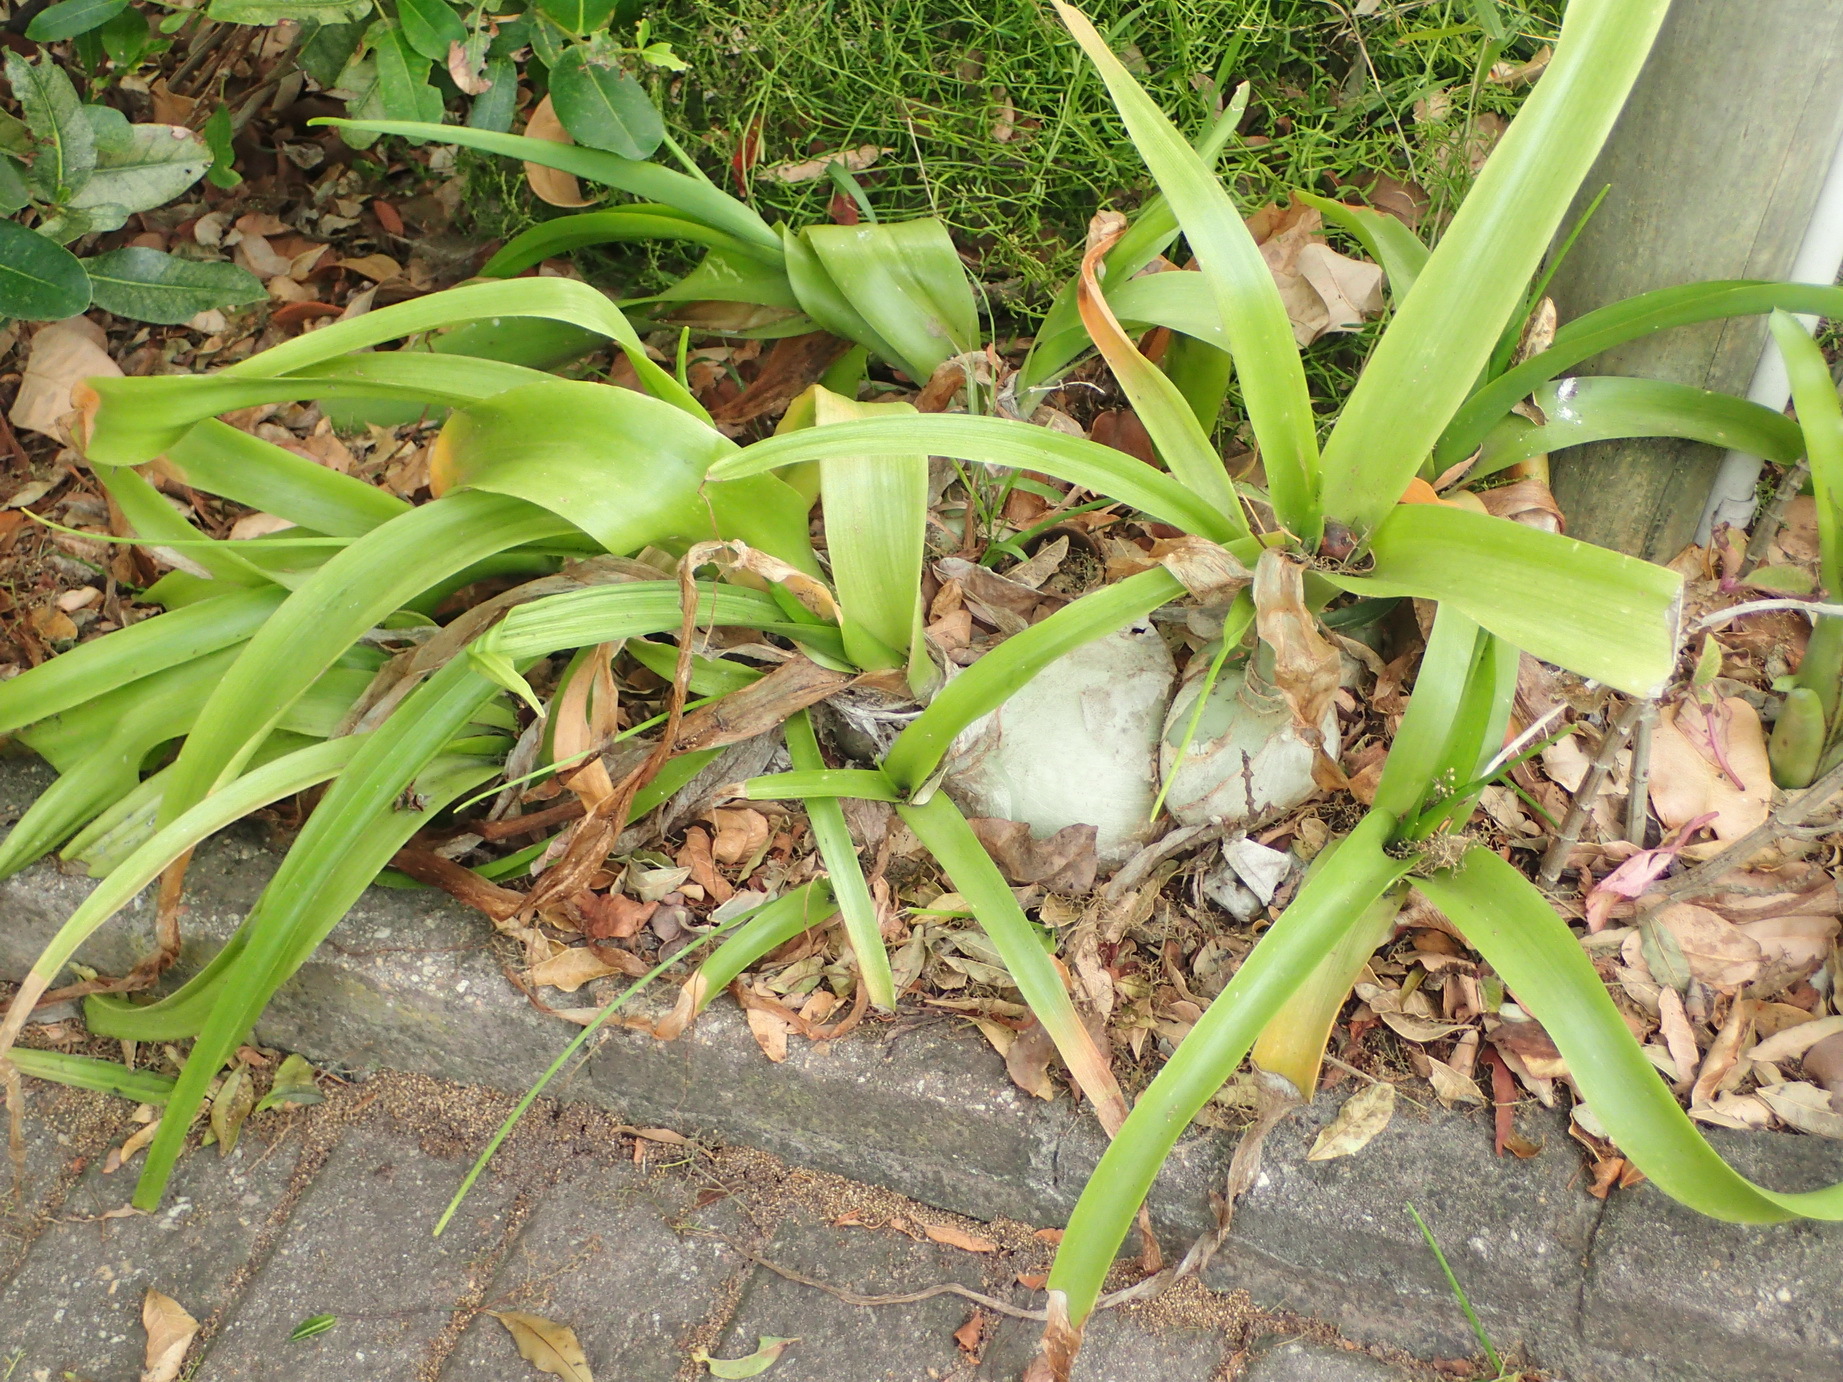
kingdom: Plantae
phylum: Tracheophyta
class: Liliopsida
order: Asparagales
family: Asparagaceae
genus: Albuca
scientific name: Albuca bracteata
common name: Sea-onion
